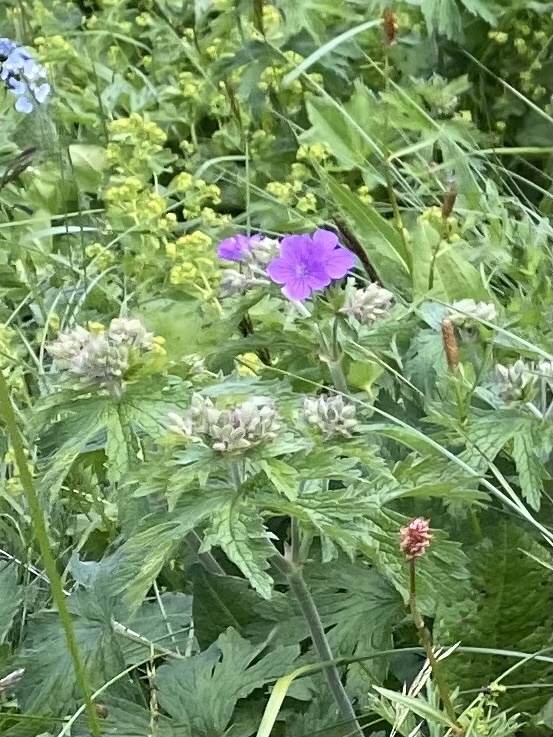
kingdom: Plantae
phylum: Tracheophyta
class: Magnoliopsida
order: Geraniales
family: Geraniaceae
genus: Geranium
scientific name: Geranium sylvaticum
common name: Wood crane's-bill
